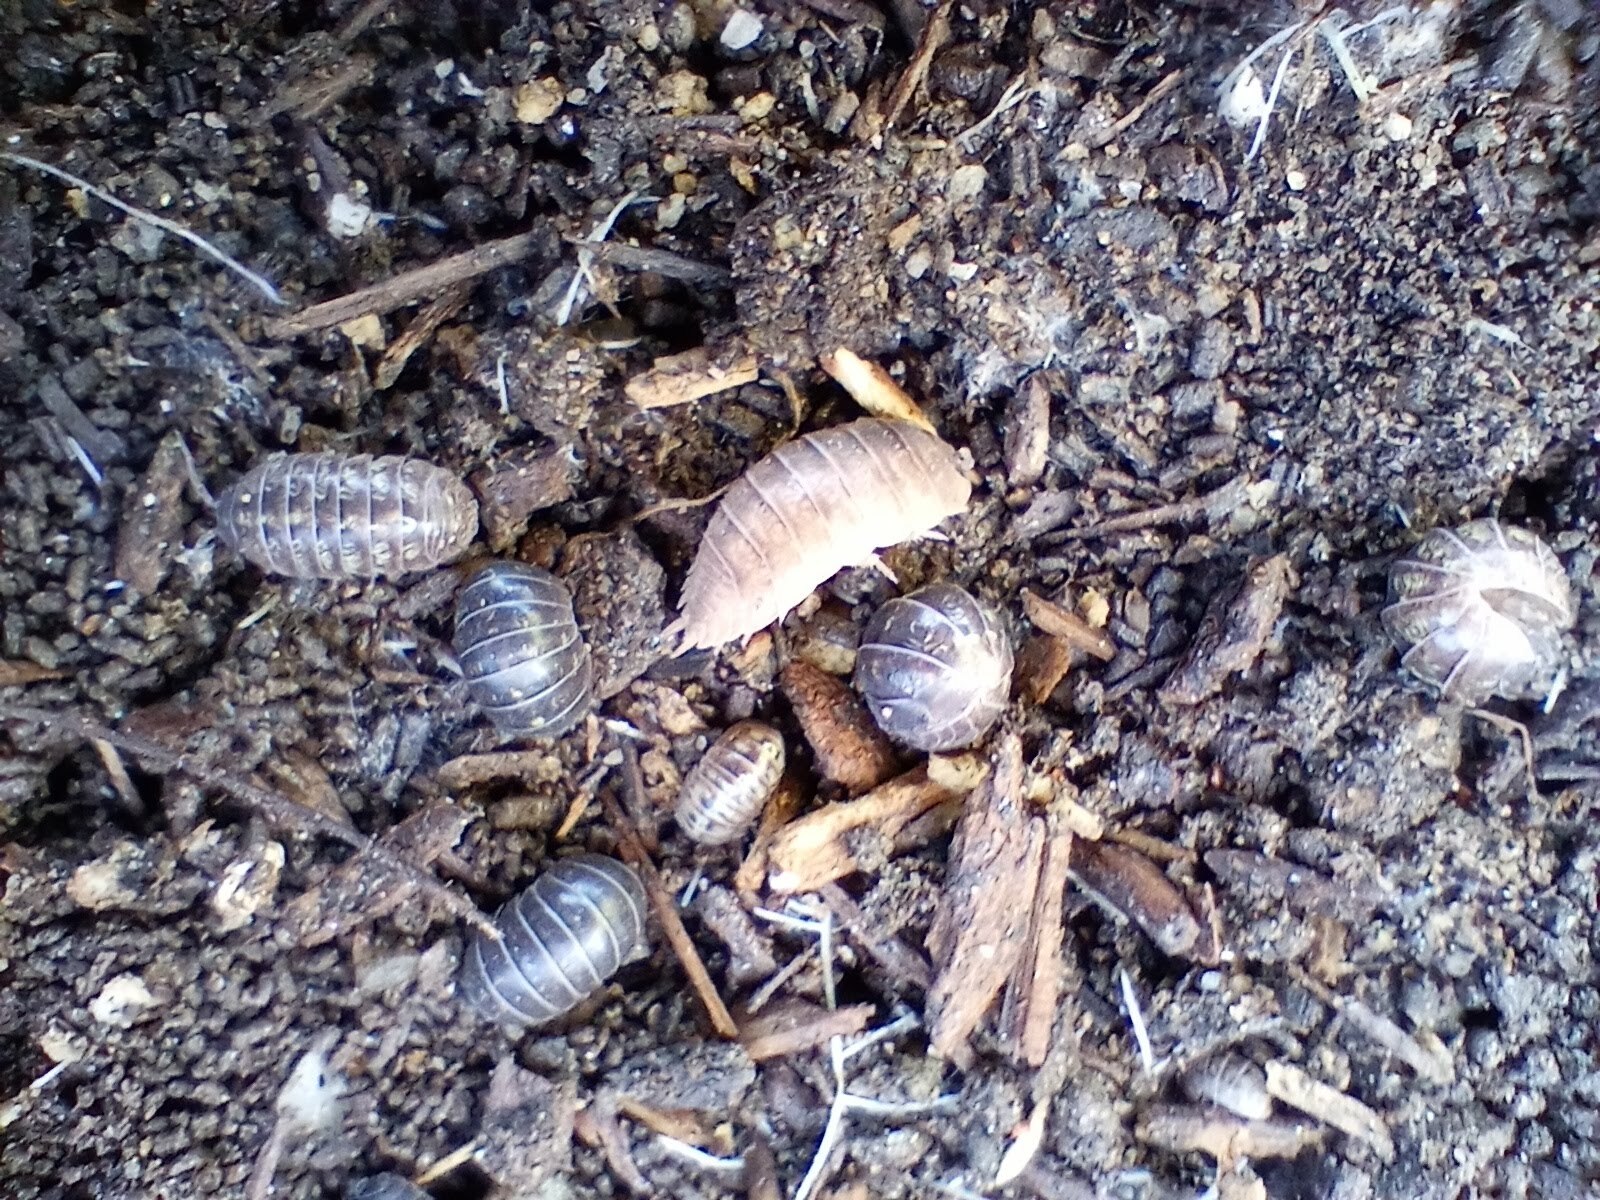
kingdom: Animalia
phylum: Arthropoda
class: Malacostraca
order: Isopoda
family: Armadillidiidae
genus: Armadillidium
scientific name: Armadillidium vulgare
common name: Common pill woodlouse
